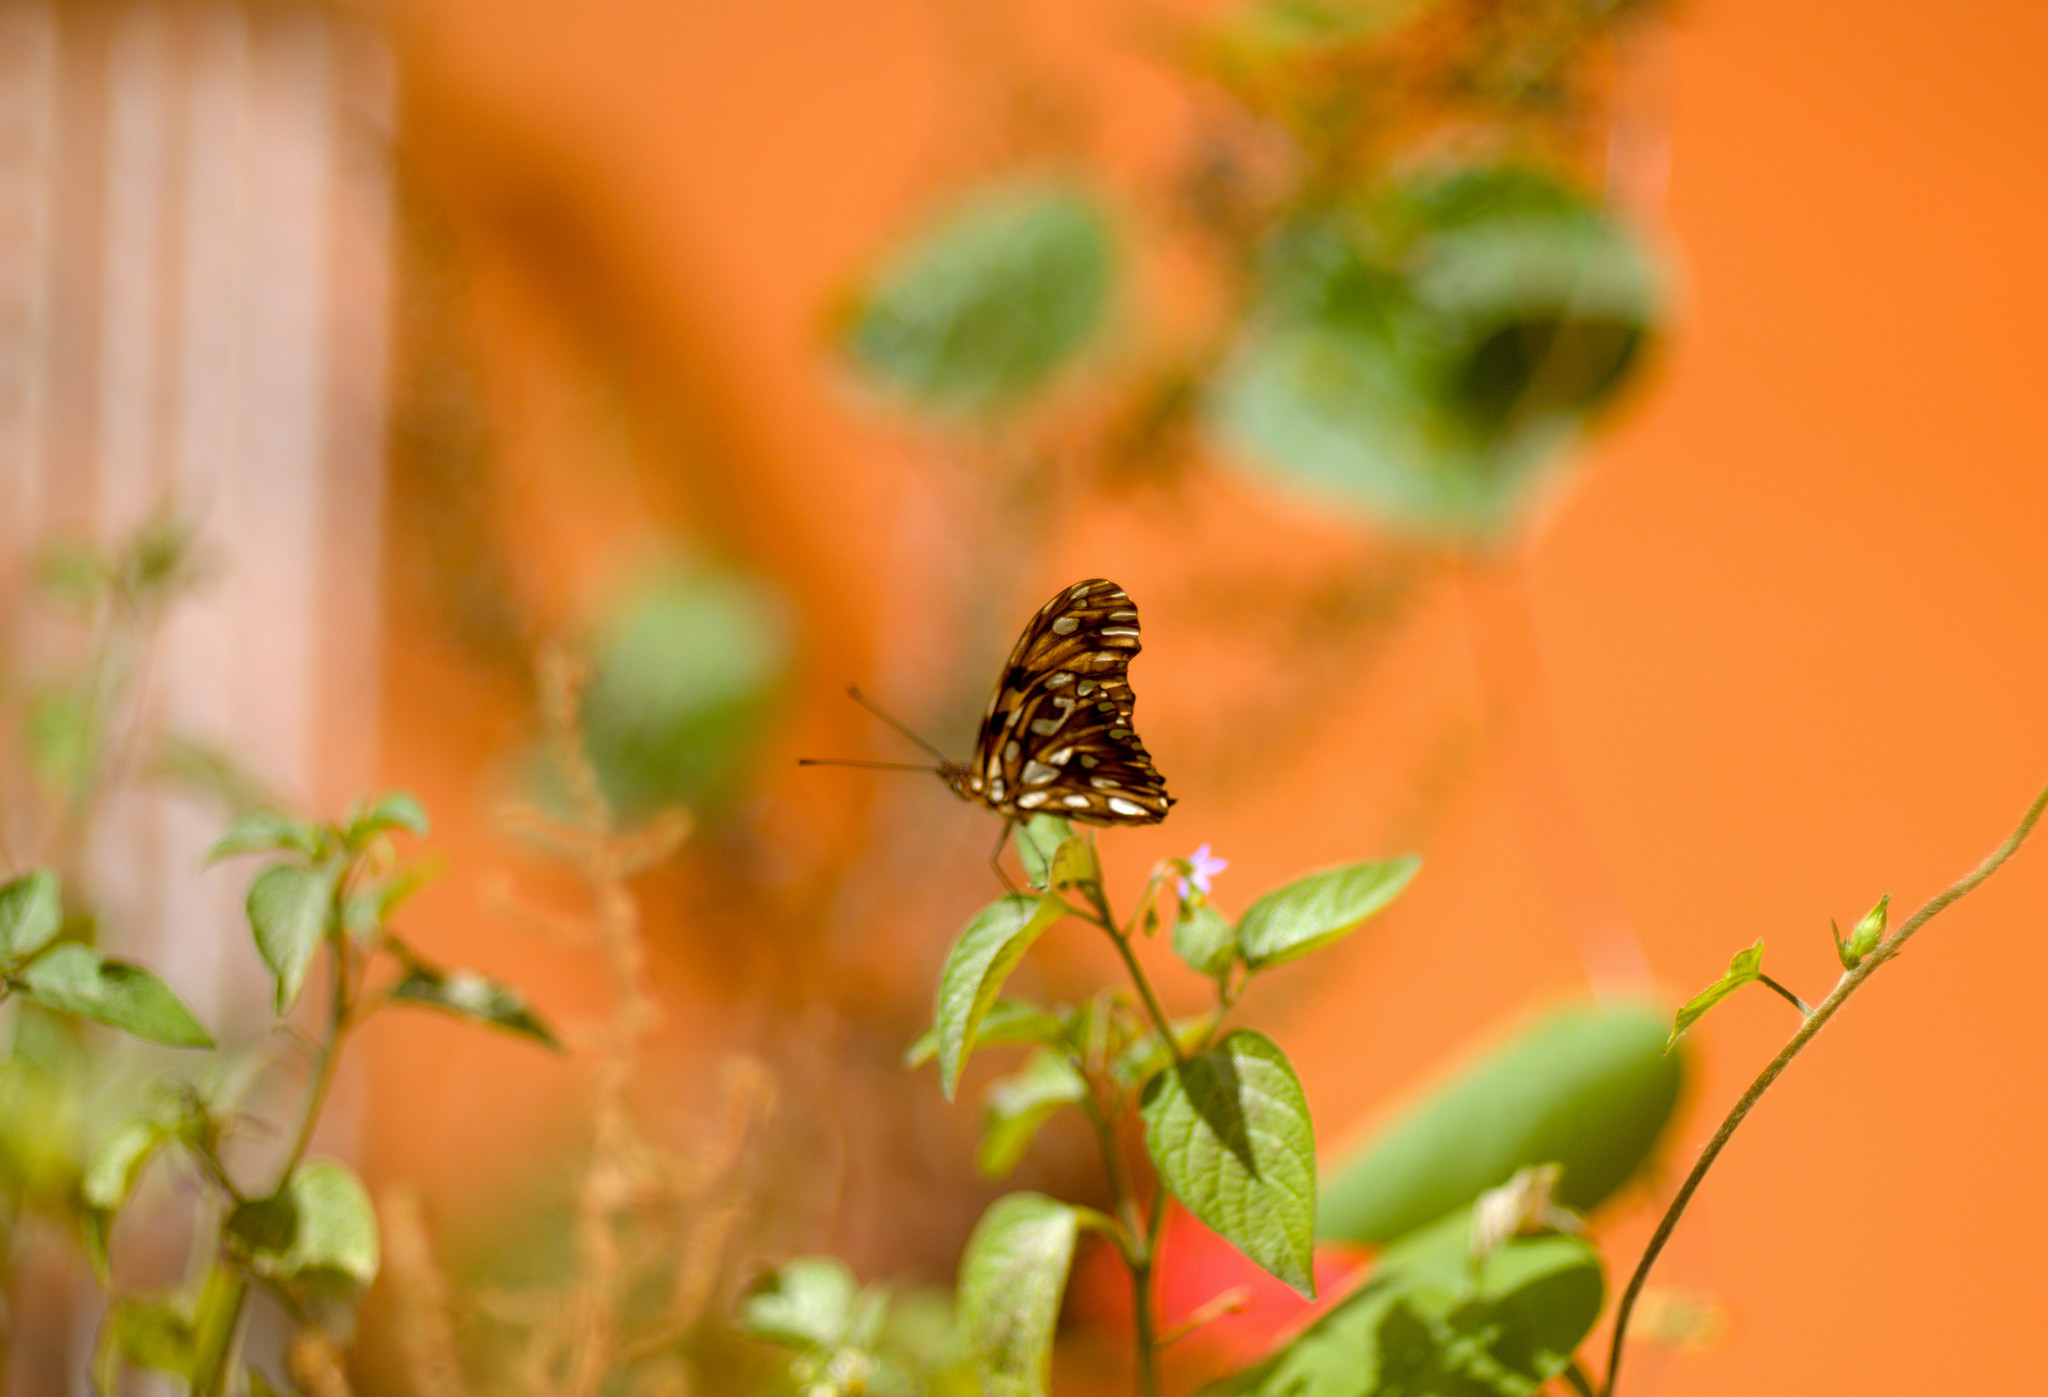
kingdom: Animalia
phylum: Arthropoda
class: Insecta
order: Lepidoptera
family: Nymphalidae
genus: Dione
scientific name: Dione juno
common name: Juno silverspot
